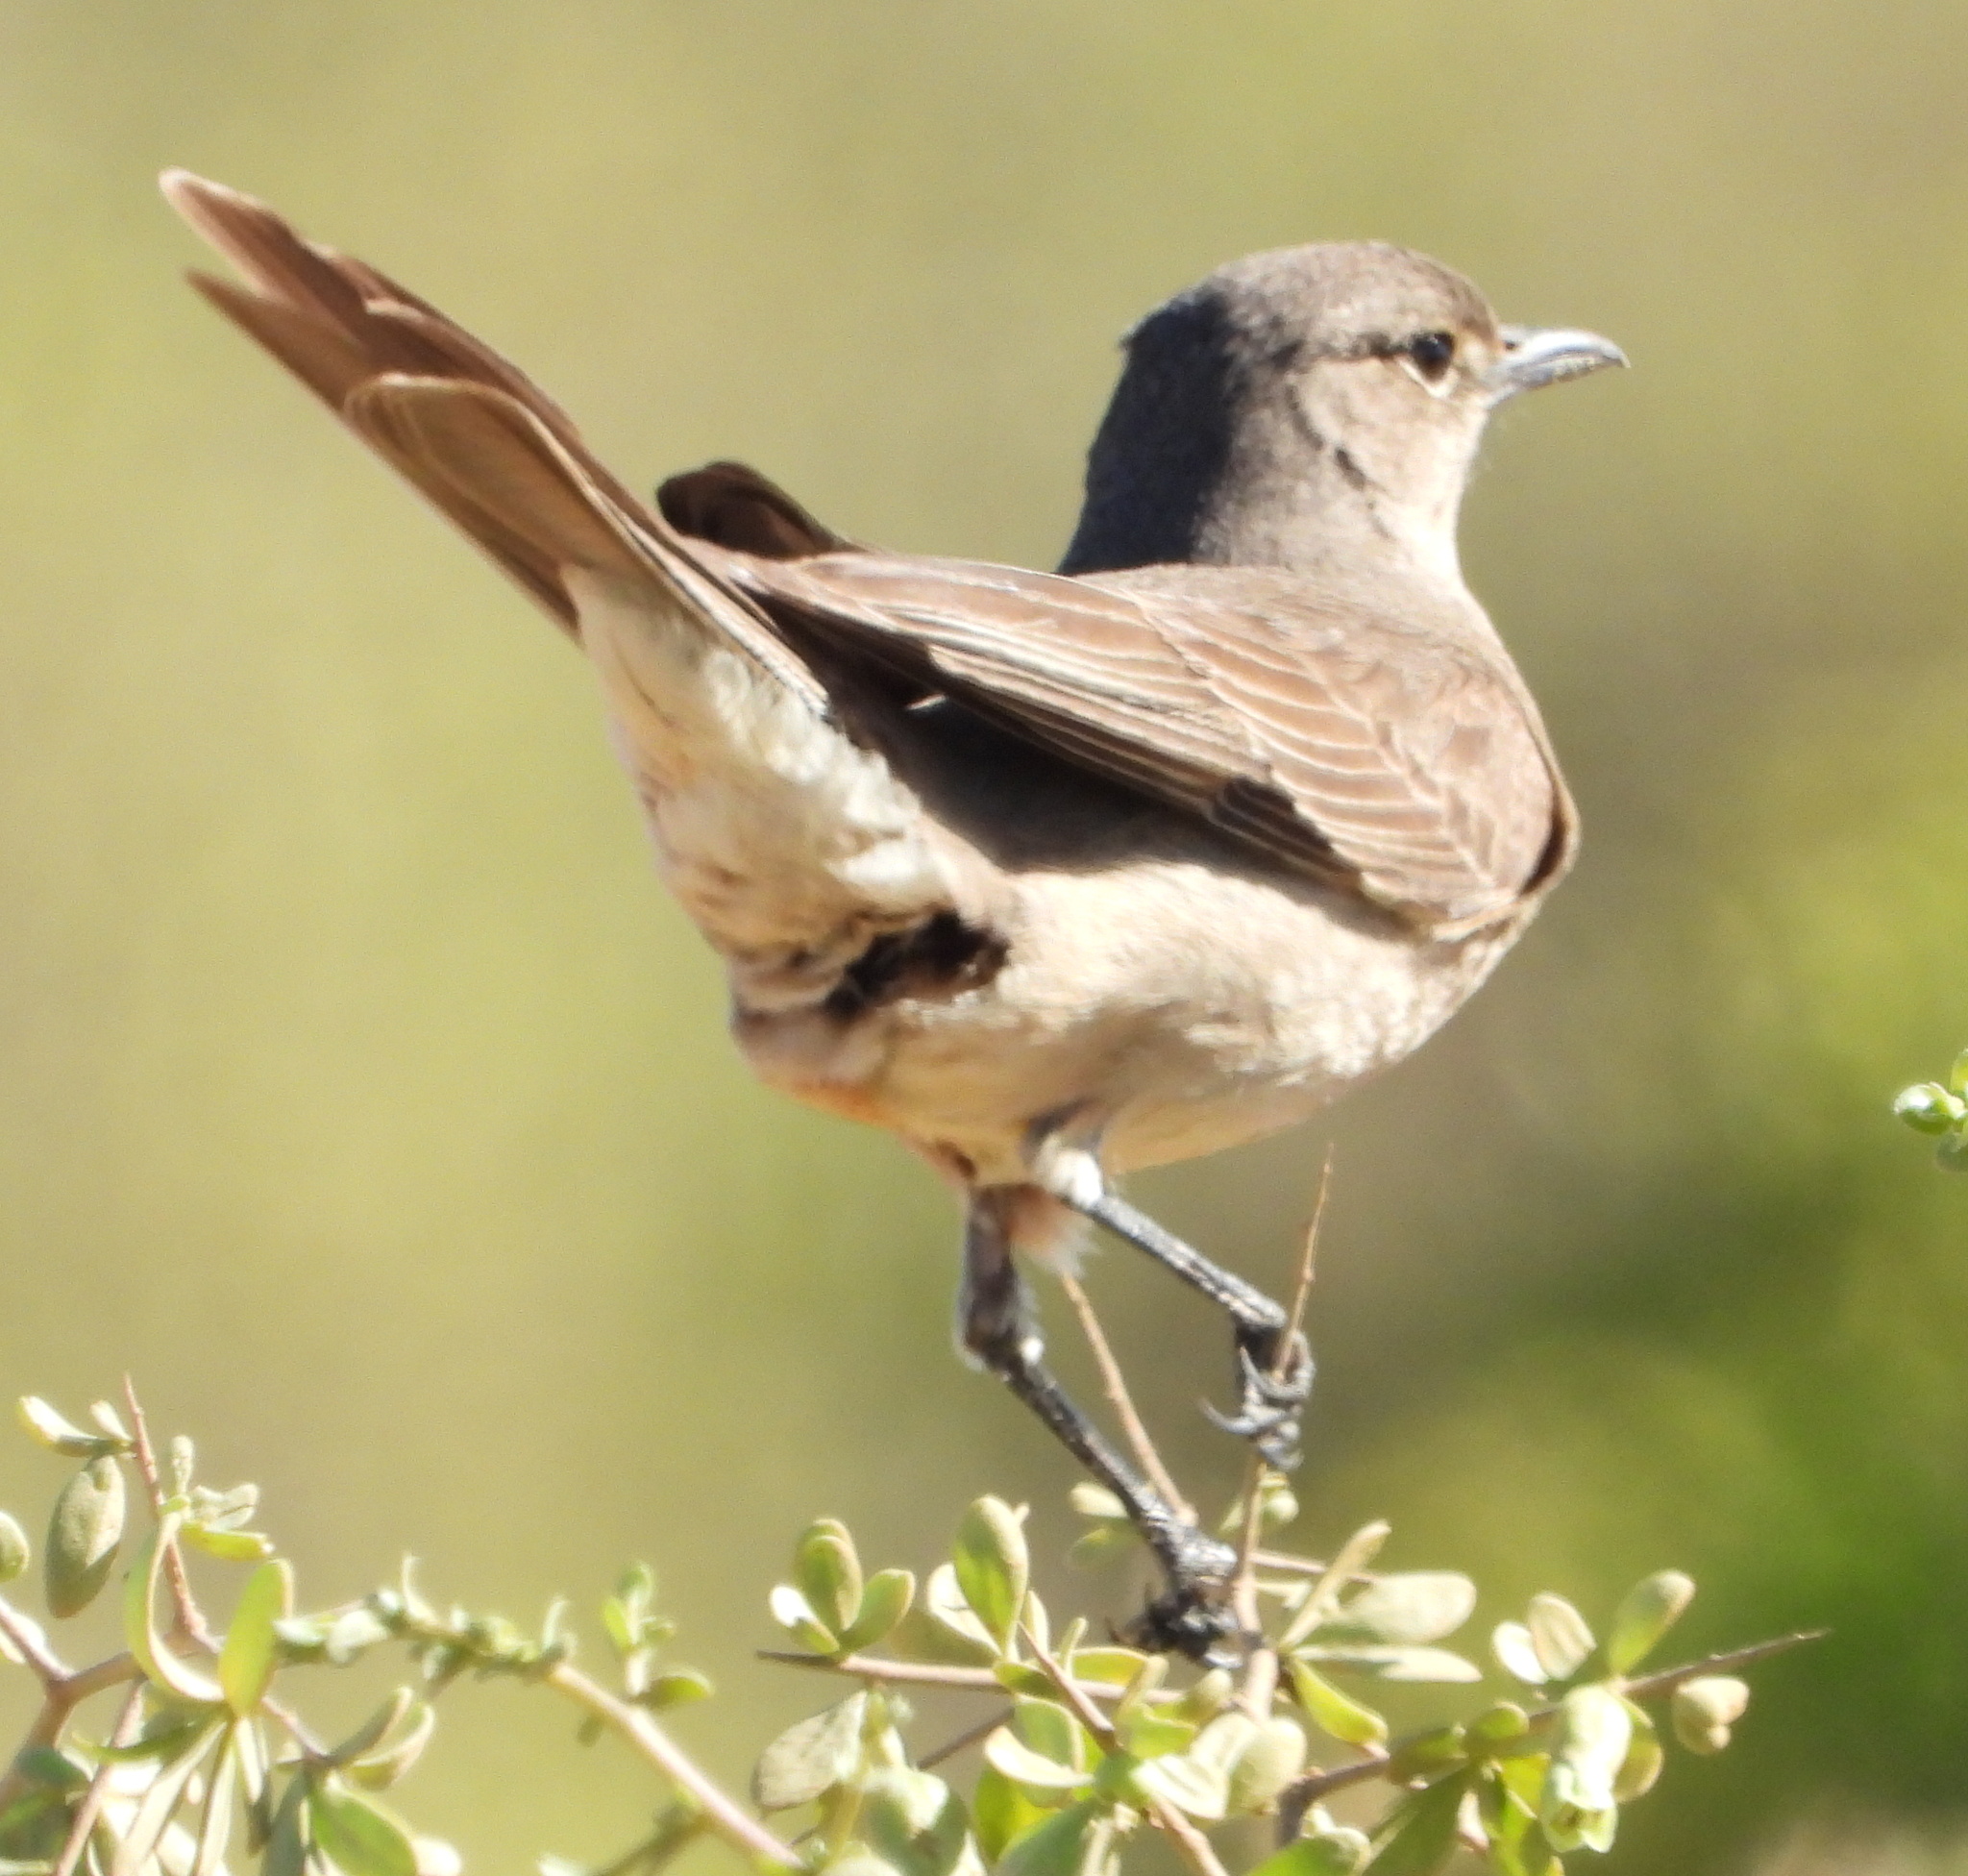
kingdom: Animalia
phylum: Chordata
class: Aves
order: Passeriformes
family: Muscicapidae
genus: Bradornis
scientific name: Bradornis infuscatus
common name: Chat flycatcher
